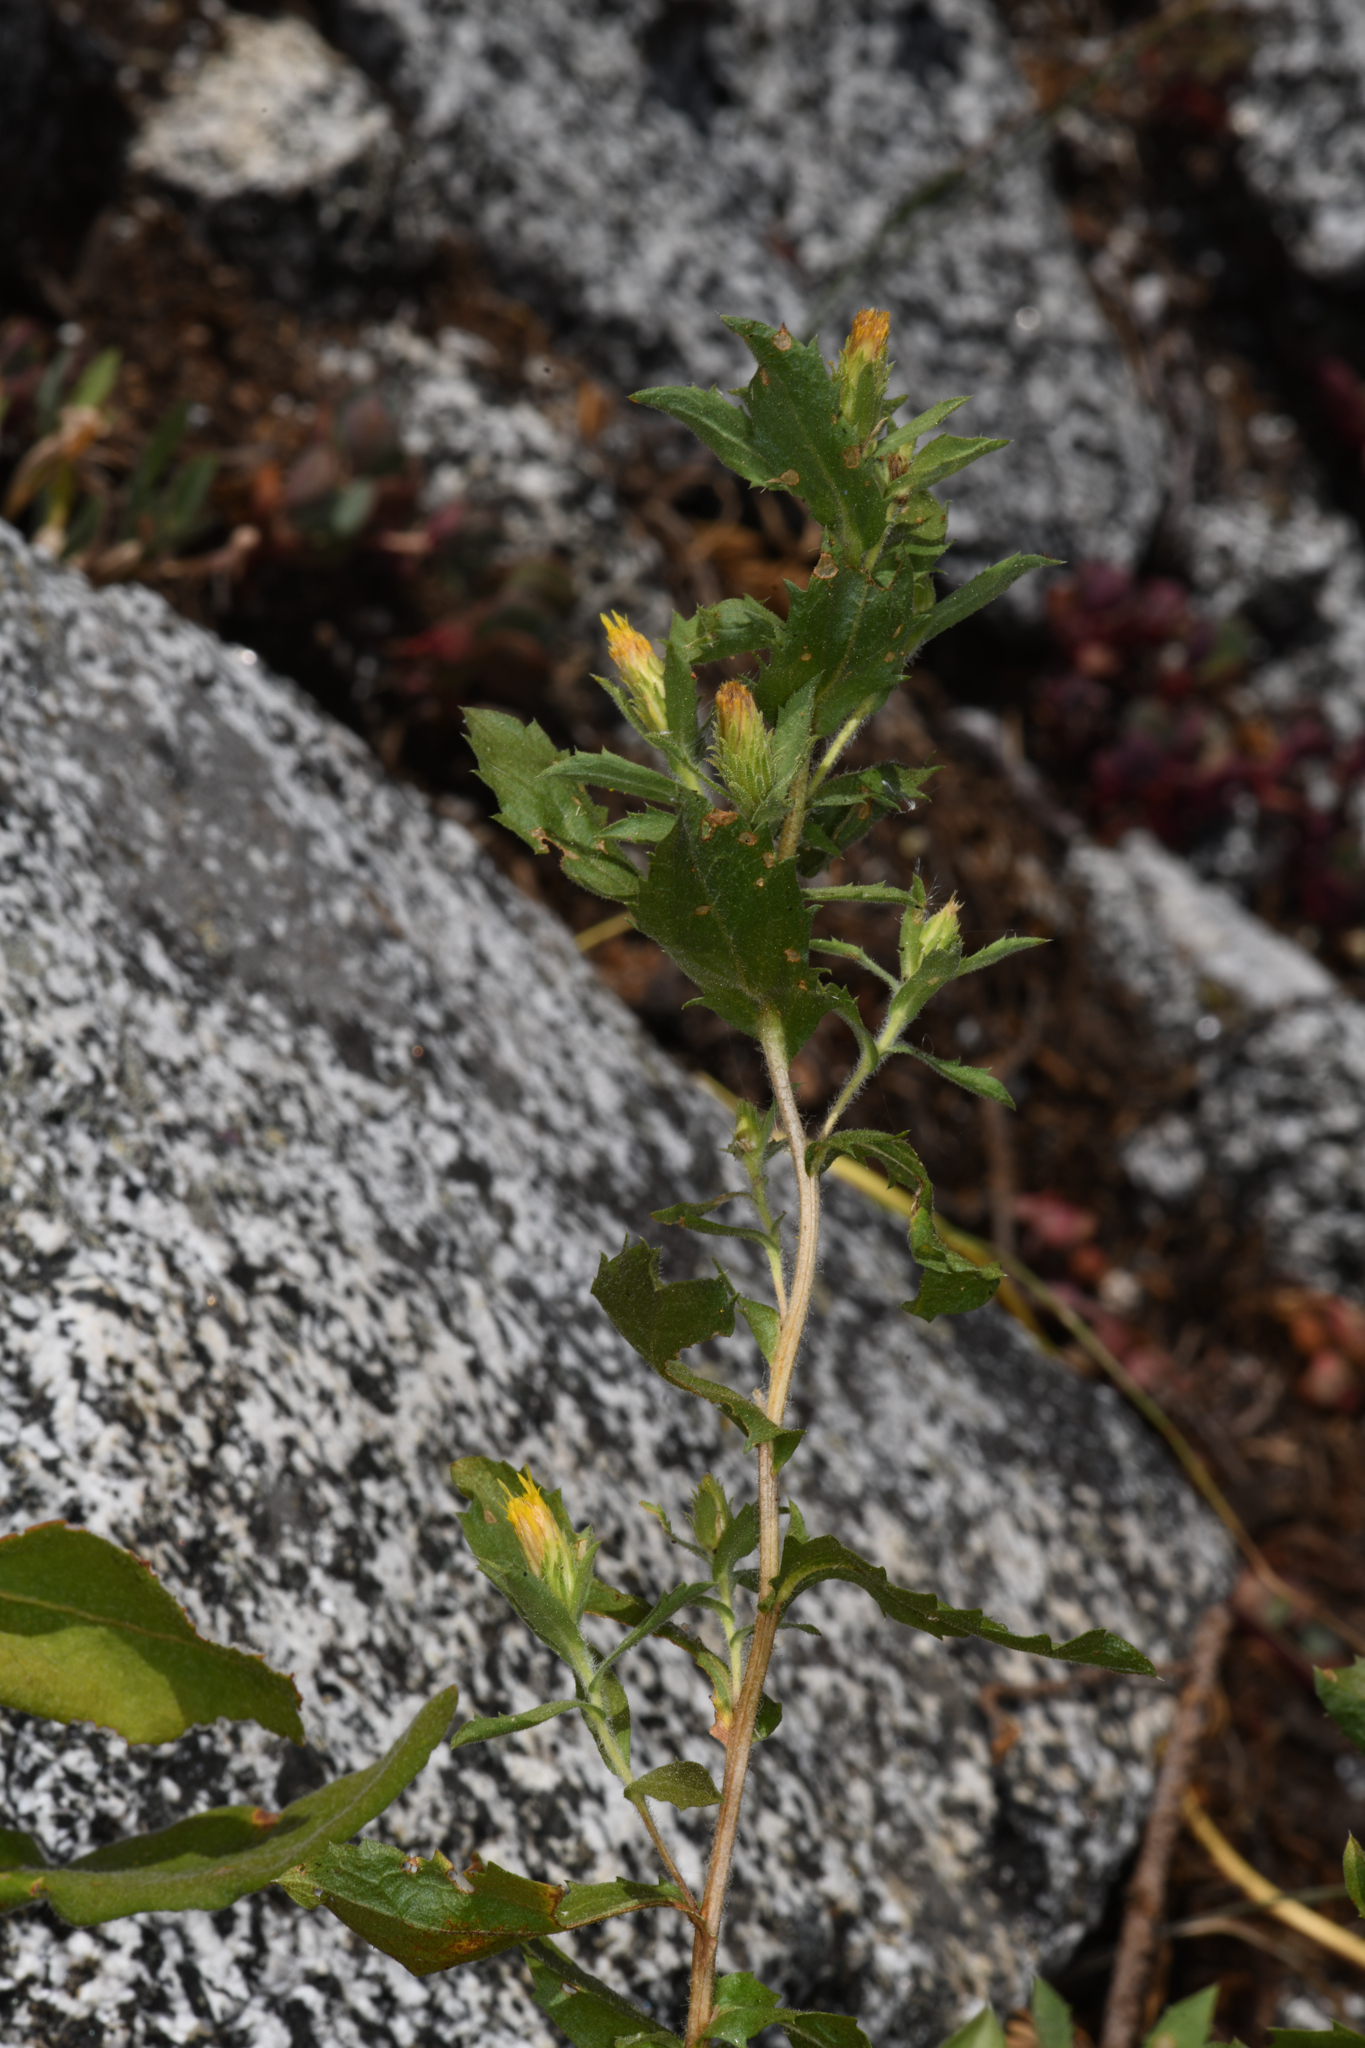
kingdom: Plantae
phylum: Tracheophyta
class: Magnoliopsida
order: Asterales
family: Asteraceae
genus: Adeia
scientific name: Adeia discoidea
